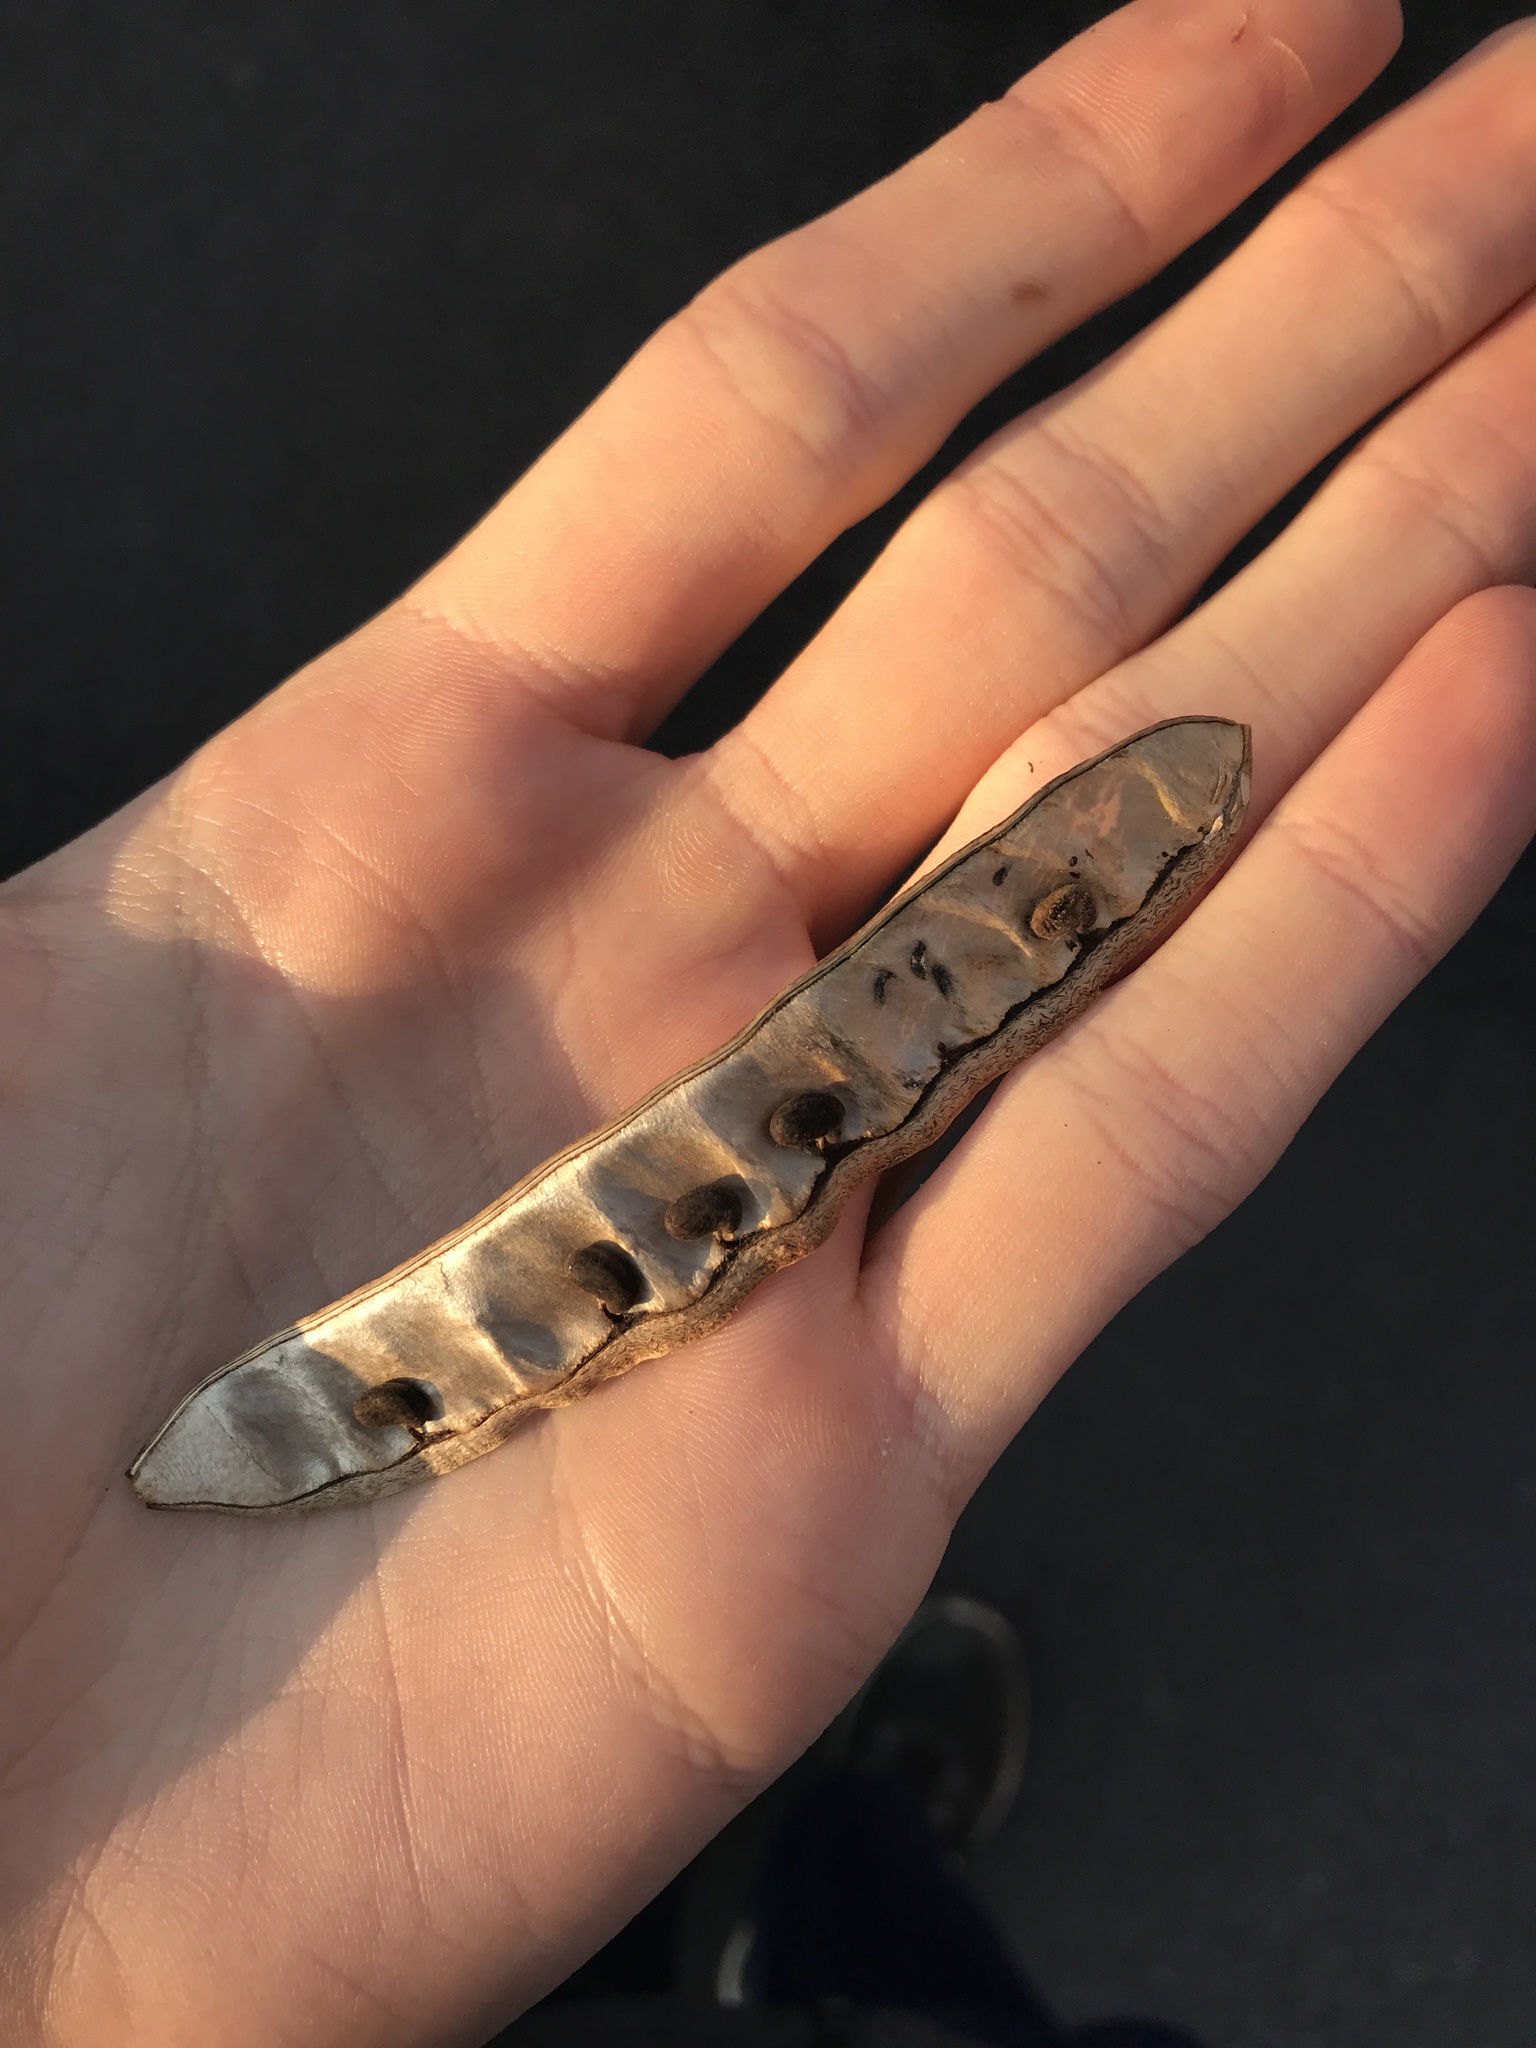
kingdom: Plantae
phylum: Tracheophyta
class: Magnoliopsida
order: Fabales
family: Fabaceae
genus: Robinia
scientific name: Robinia pseudoacacia
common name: Black locust
